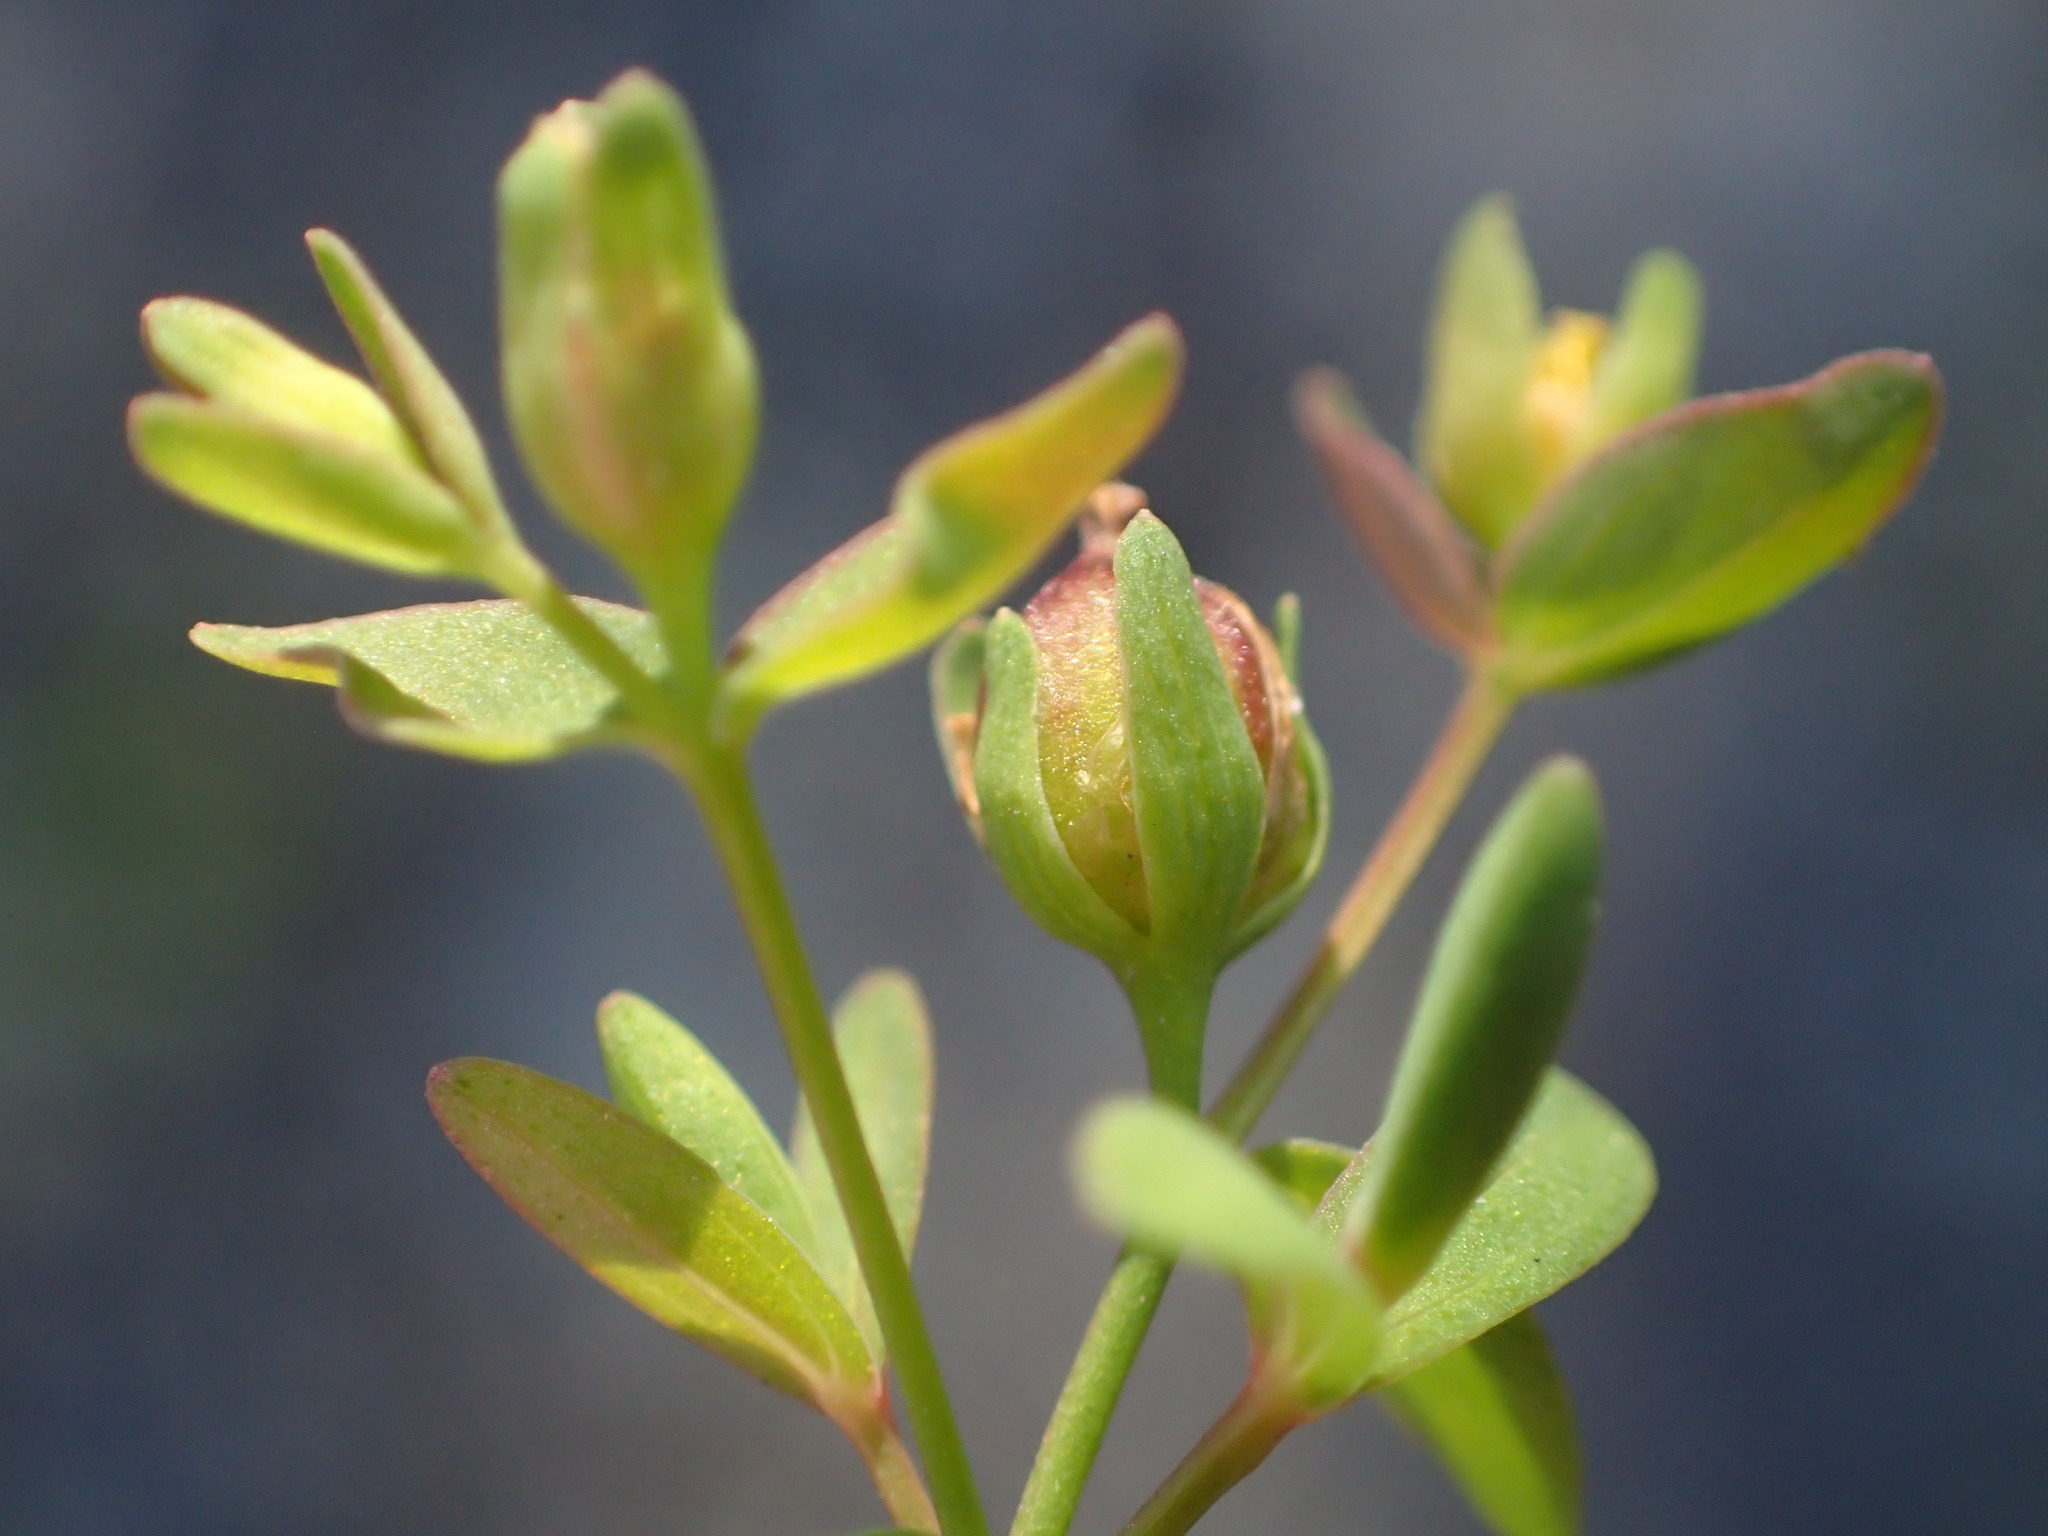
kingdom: Plantae
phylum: Tracheophyta
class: Magnoliopsida
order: Malpighiales
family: Hypericaceae
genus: Hypericum
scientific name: Hypericum mutilum
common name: Dwarf st. john's-wort
